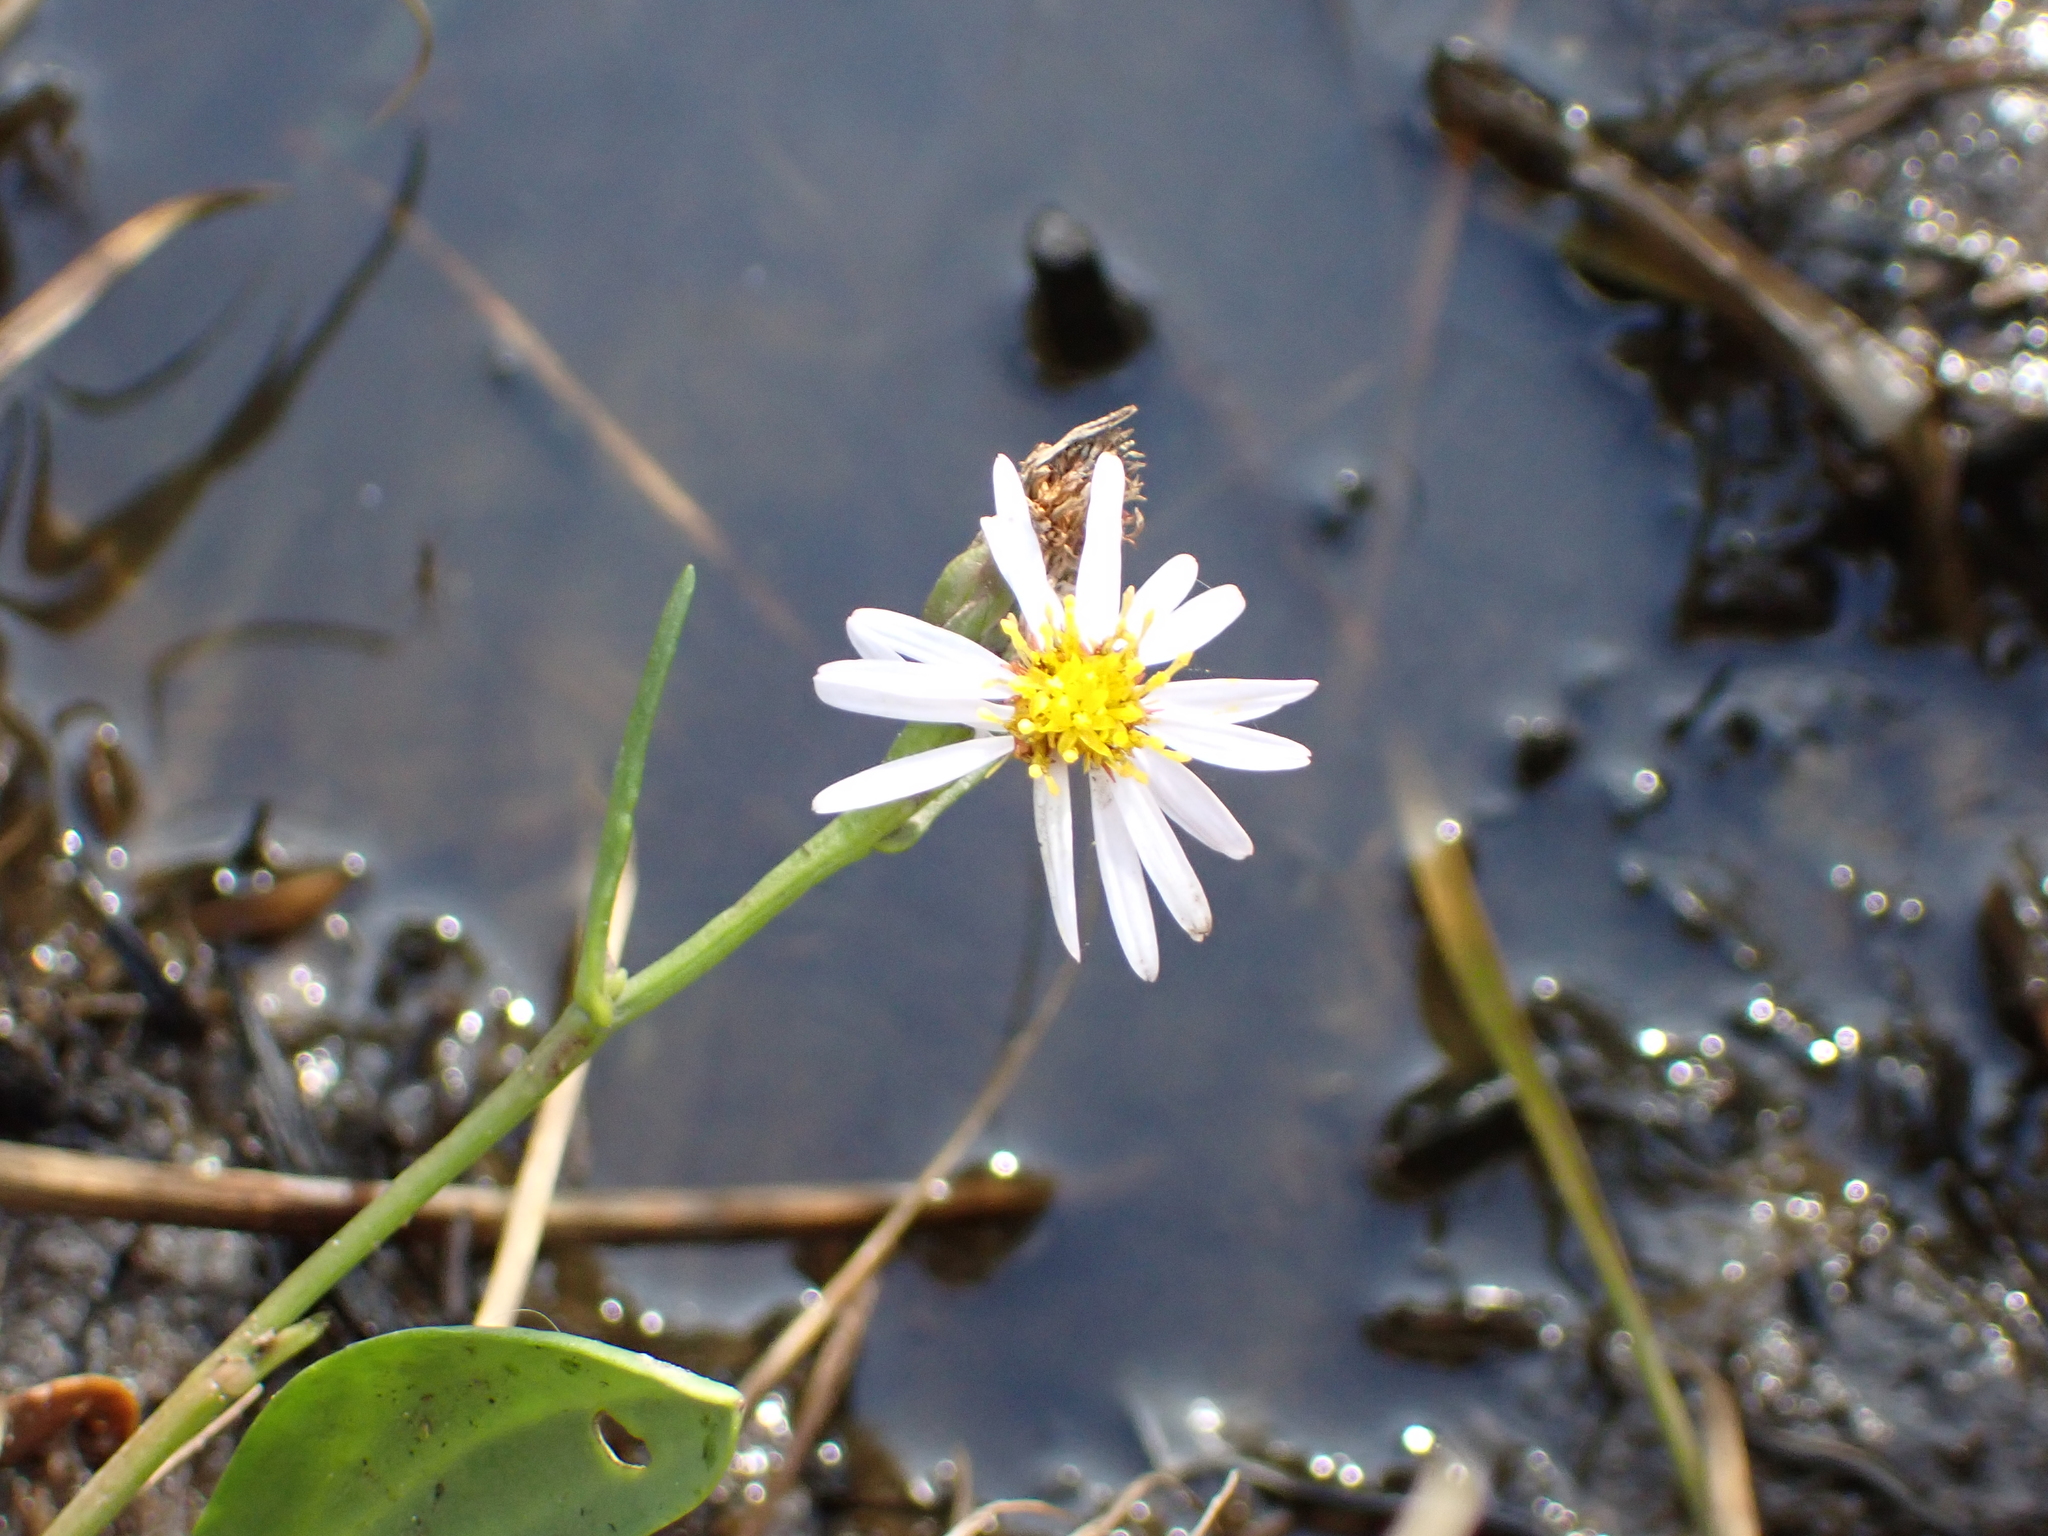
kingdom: Plantae
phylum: Tracheophyta
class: Magnoliopsida
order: Asterales
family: Asteraceae
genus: Tripolium
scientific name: Tripolium pannonicum
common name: Sea aster
